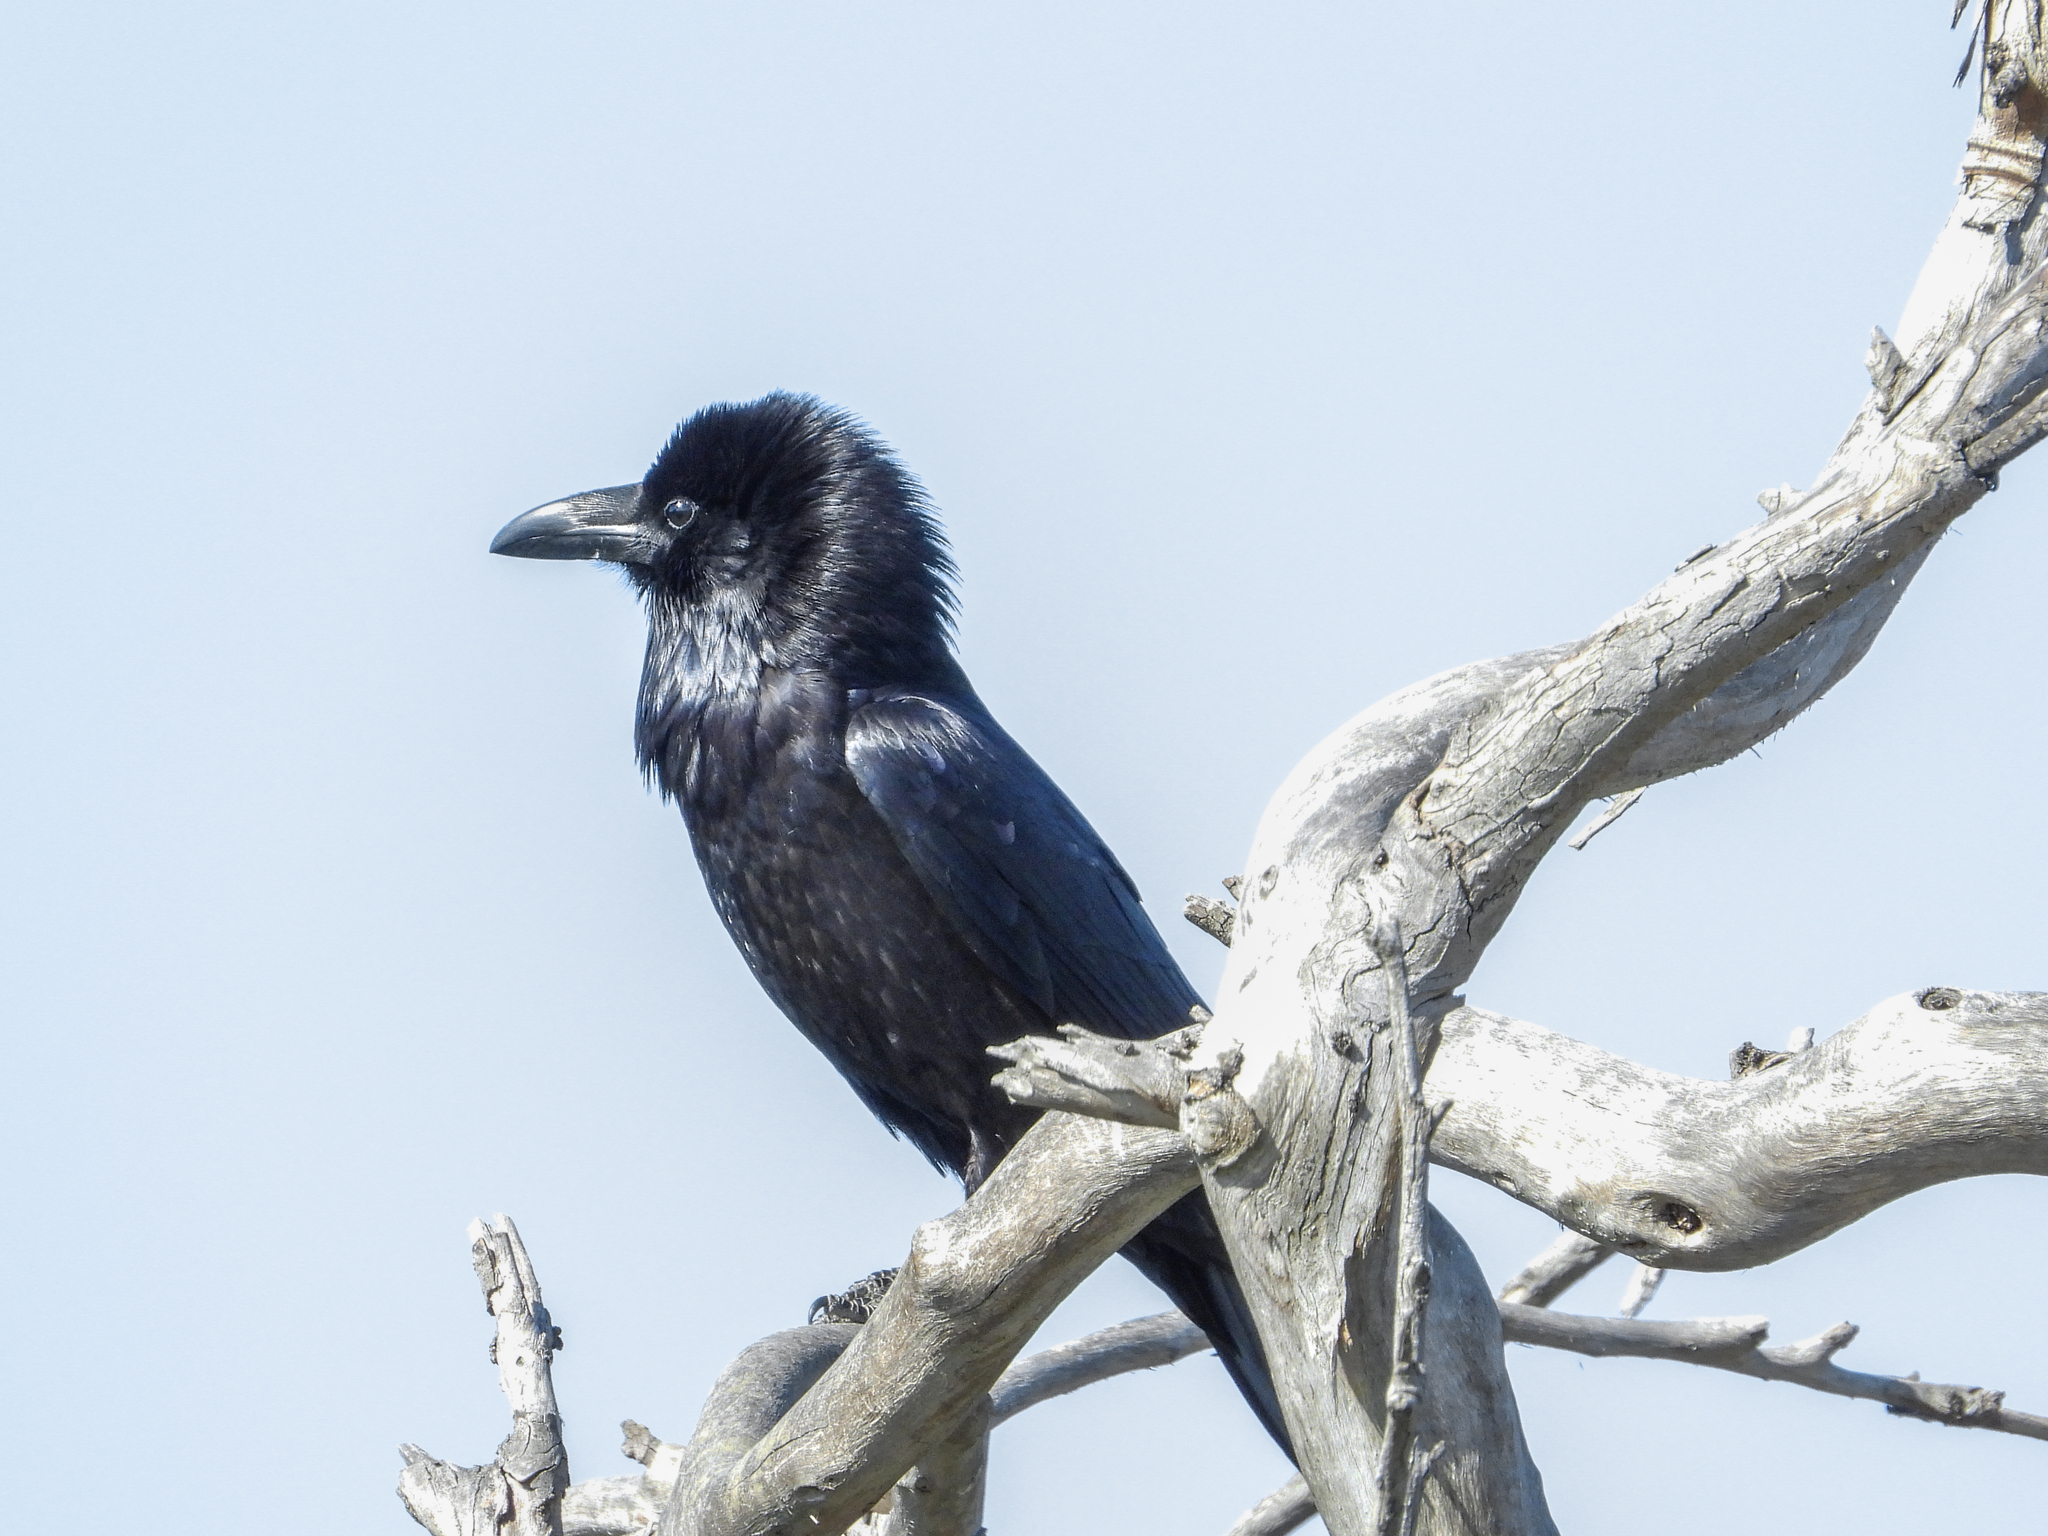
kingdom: Animalia
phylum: Chordata
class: Aves
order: Passeriformes
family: Corvidae
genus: Corvus
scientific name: Corvus corax
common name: Common raven
